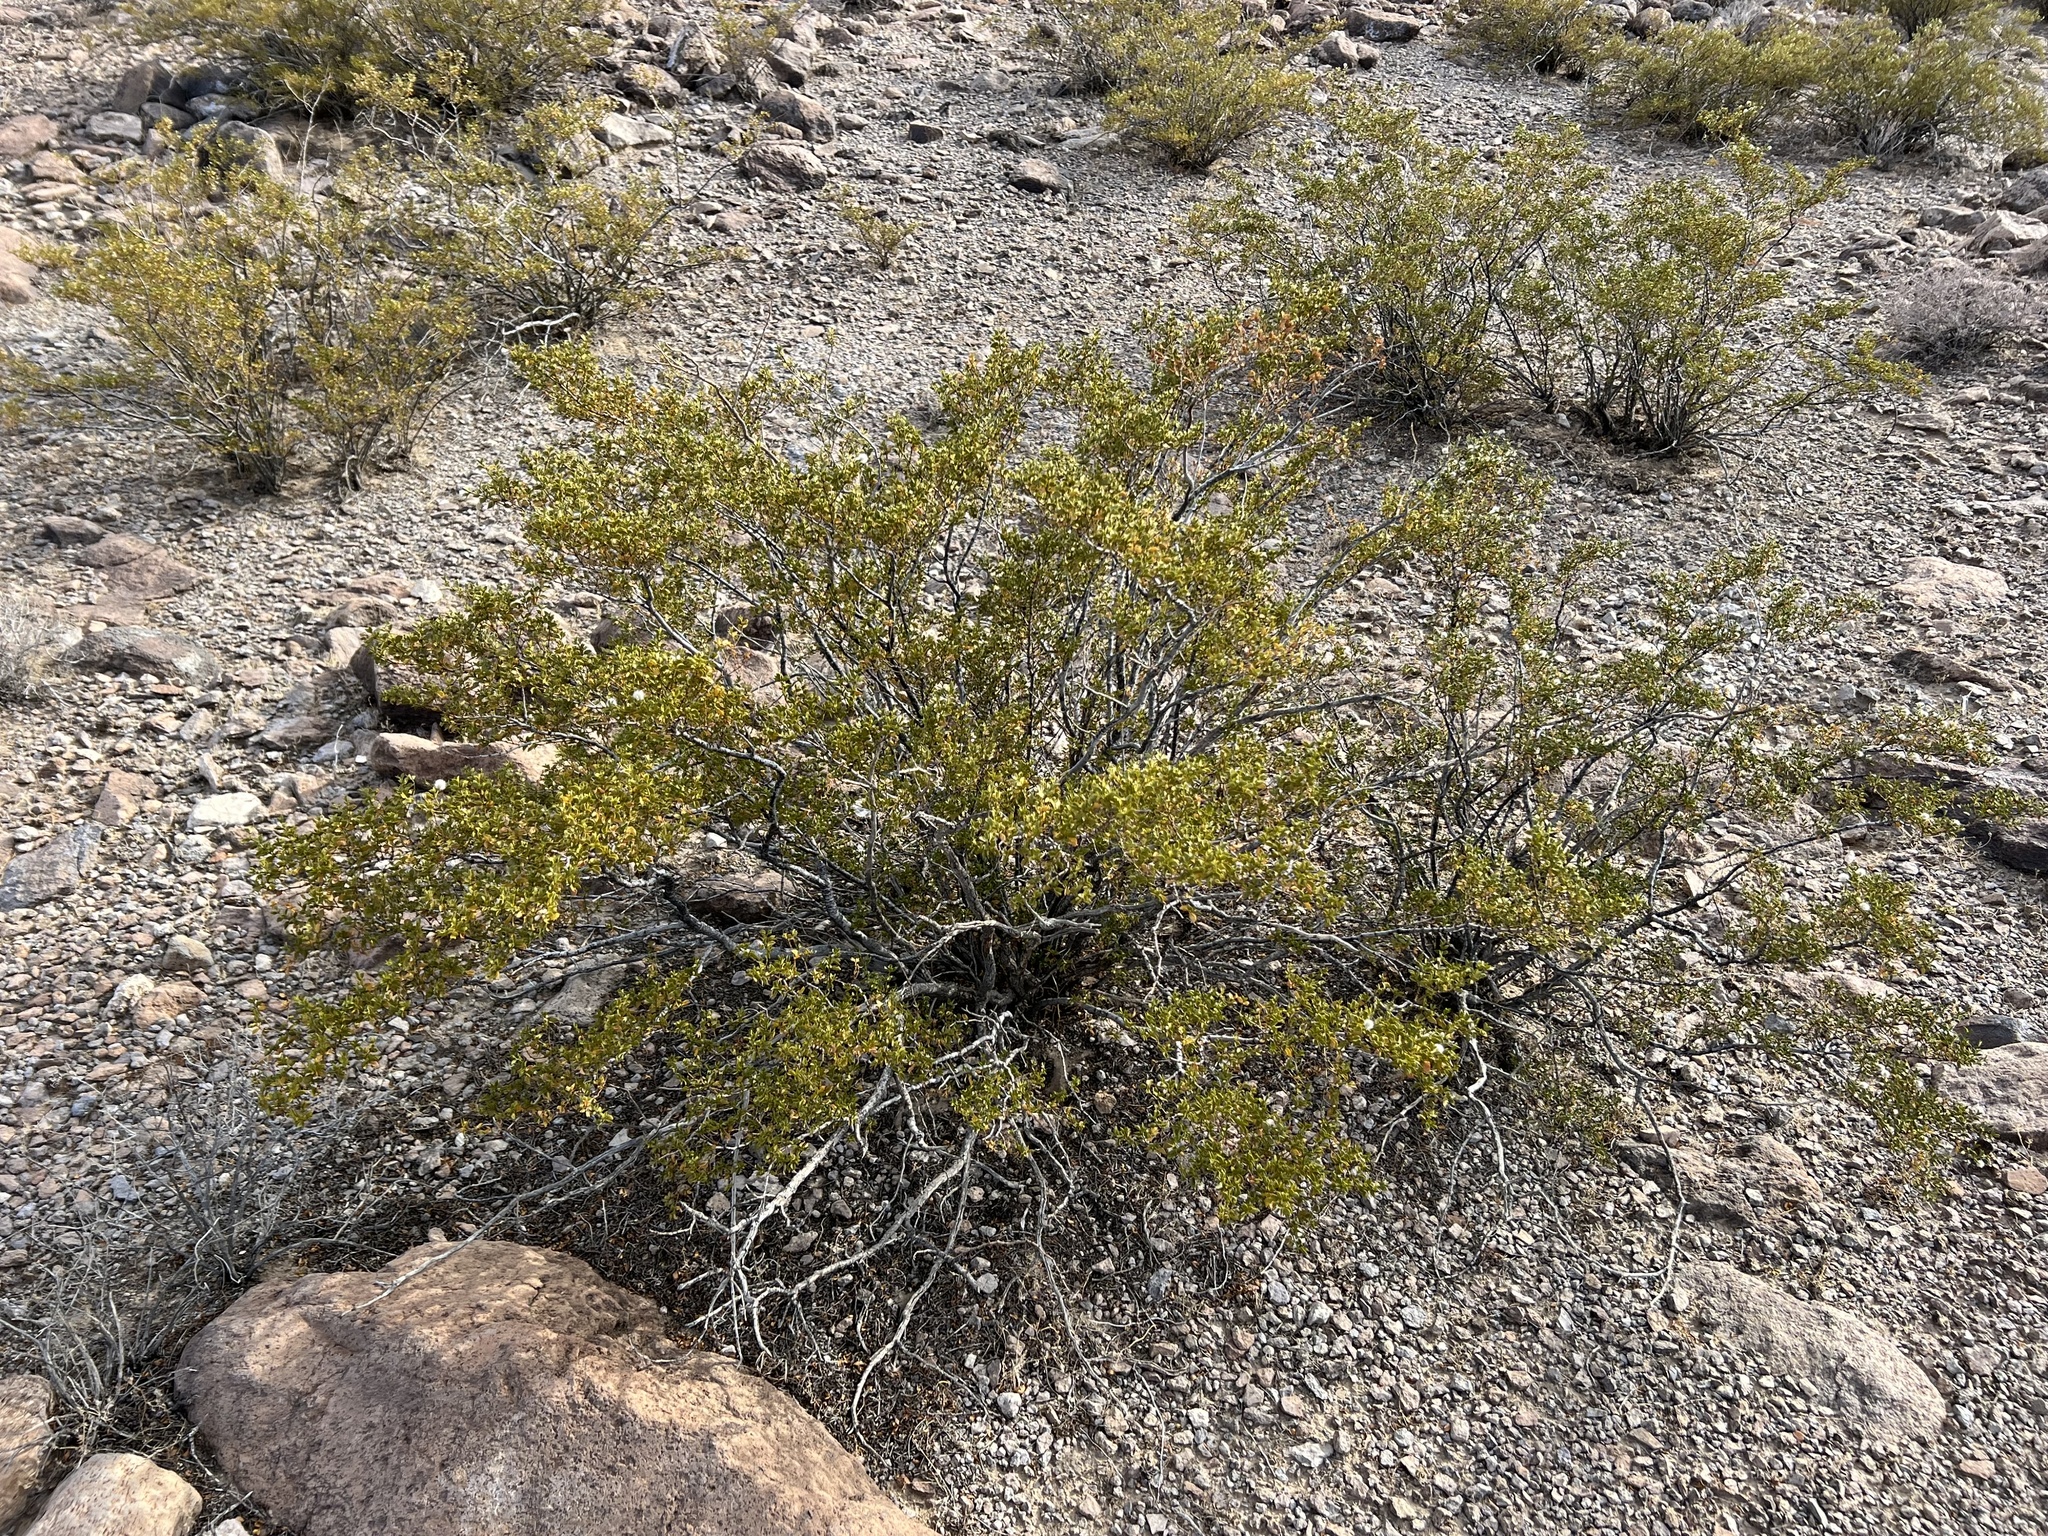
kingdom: Plantae
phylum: Tracheophyta
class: Magnoliopsida
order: Zygophyllales
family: Zygophyllaceae
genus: Larrea
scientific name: Larrea tridentata
